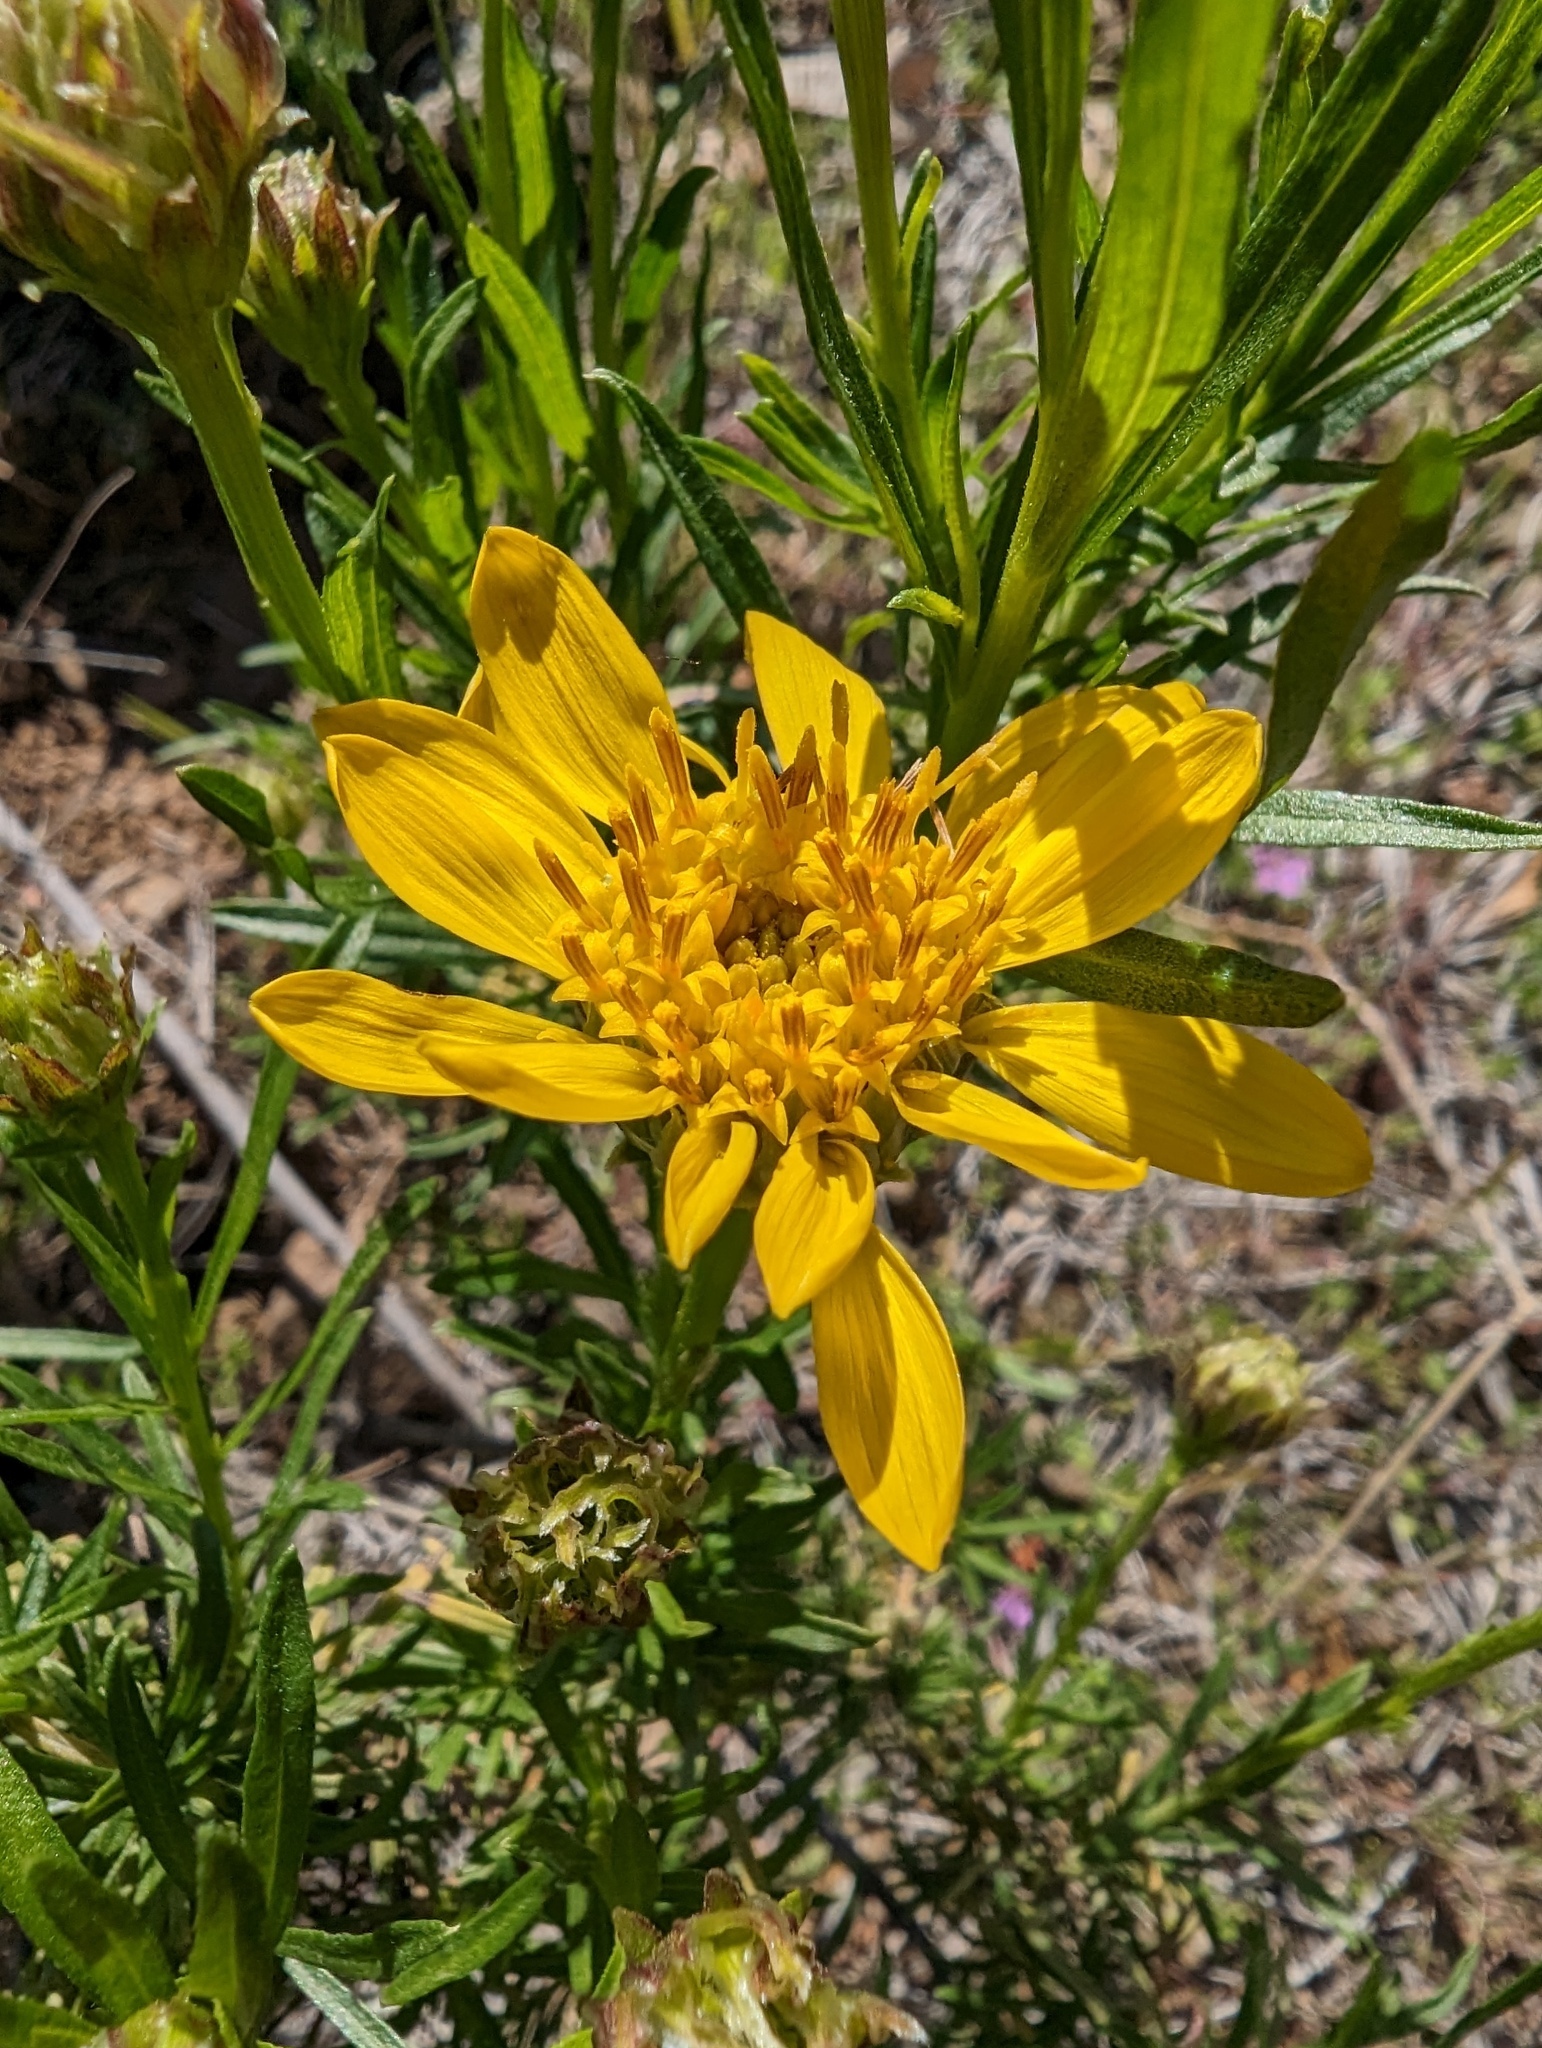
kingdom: Plantae
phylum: Tracheophyta
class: Magnoliopsida
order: Asterales
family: Asteraceae
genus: Ericameria
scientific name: Ericameria linearifolia
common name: Interior goldenbush
